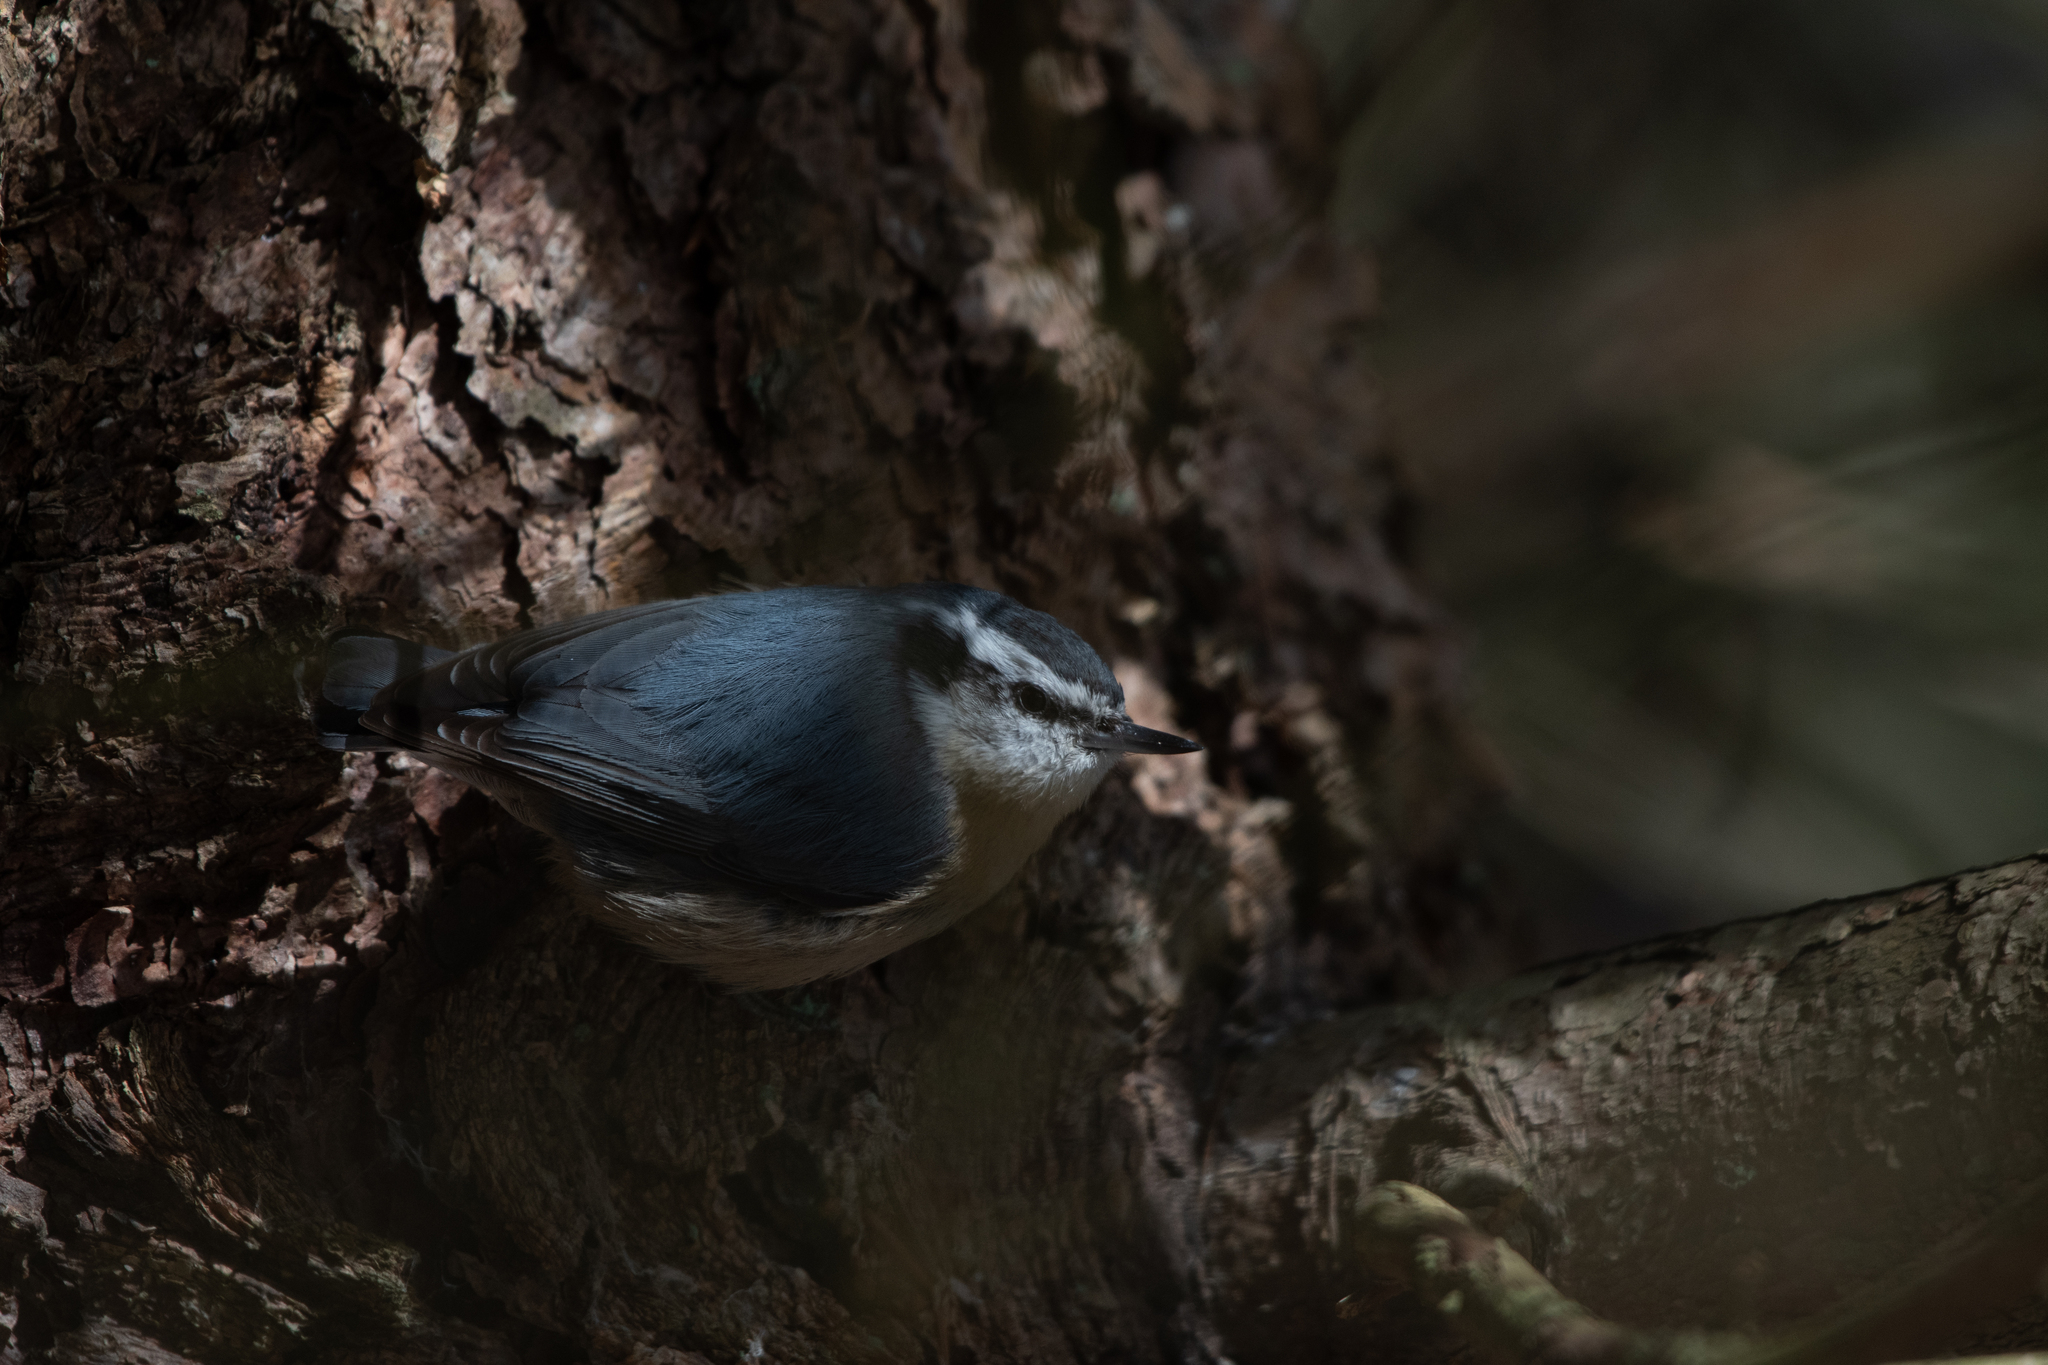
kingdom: Animalia
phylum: Chordata
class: Aves
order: Passeriformes
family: Sittidae
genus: Sitta
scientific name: Sitta canadensis
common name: Red-breasted nuthatch
